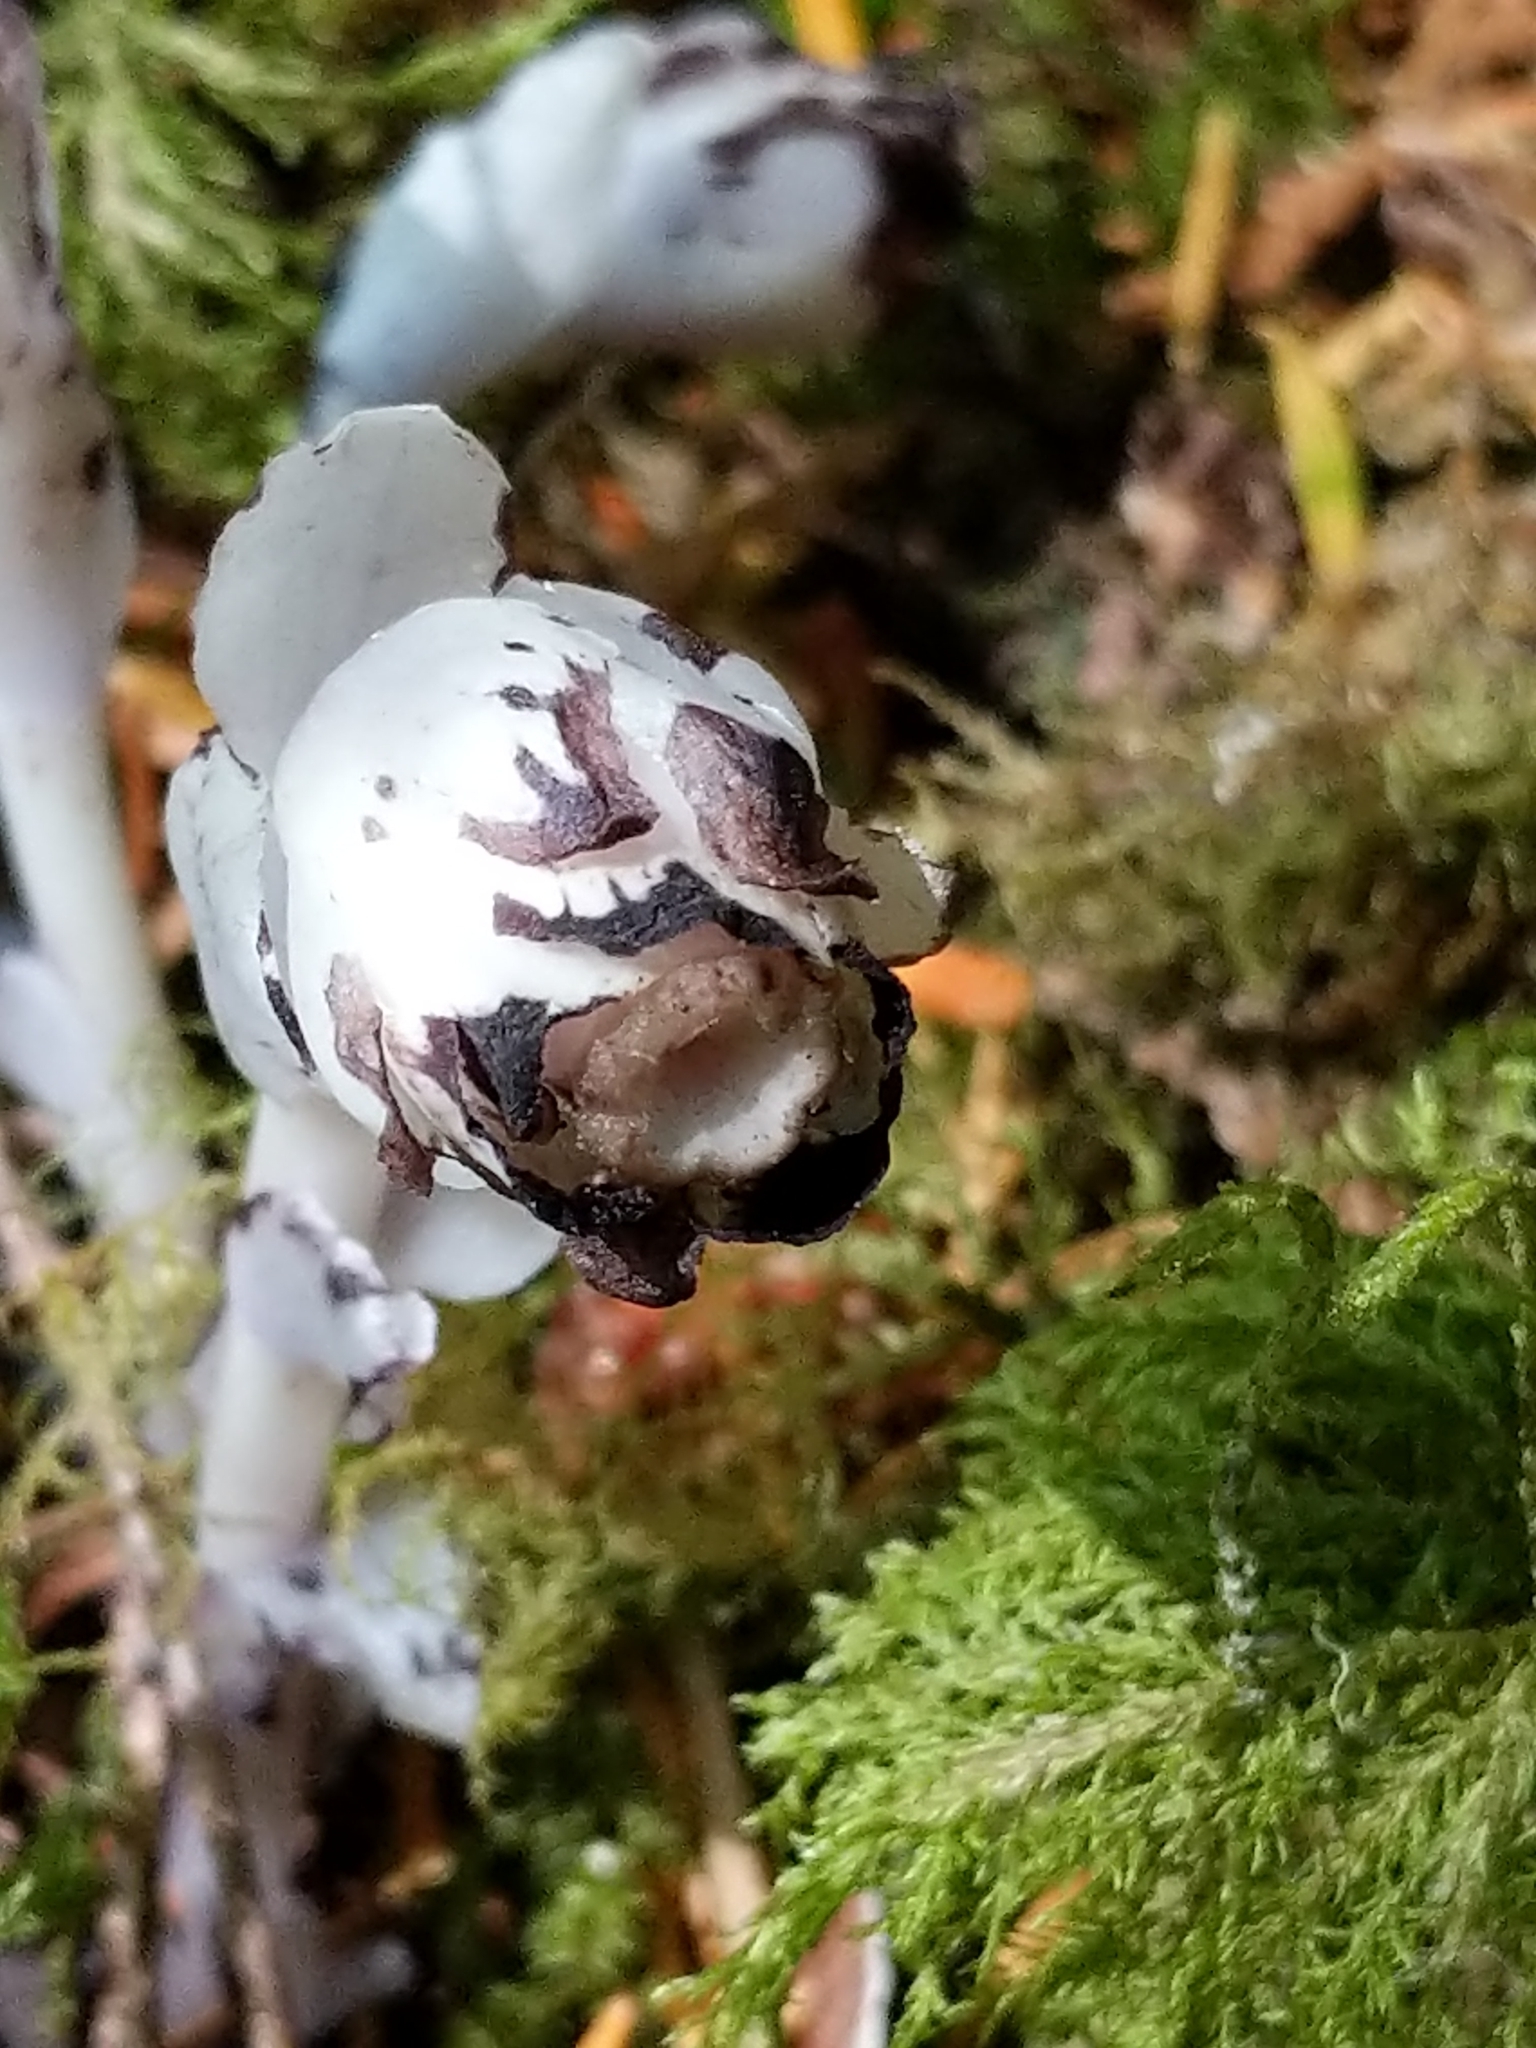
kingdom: Plantae
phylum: Tracheophyta
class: Magnoliopsida
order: Ericales
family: Ericaceae
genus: Monotropa
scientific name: Monotropa uniflora
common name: Convulsion root
